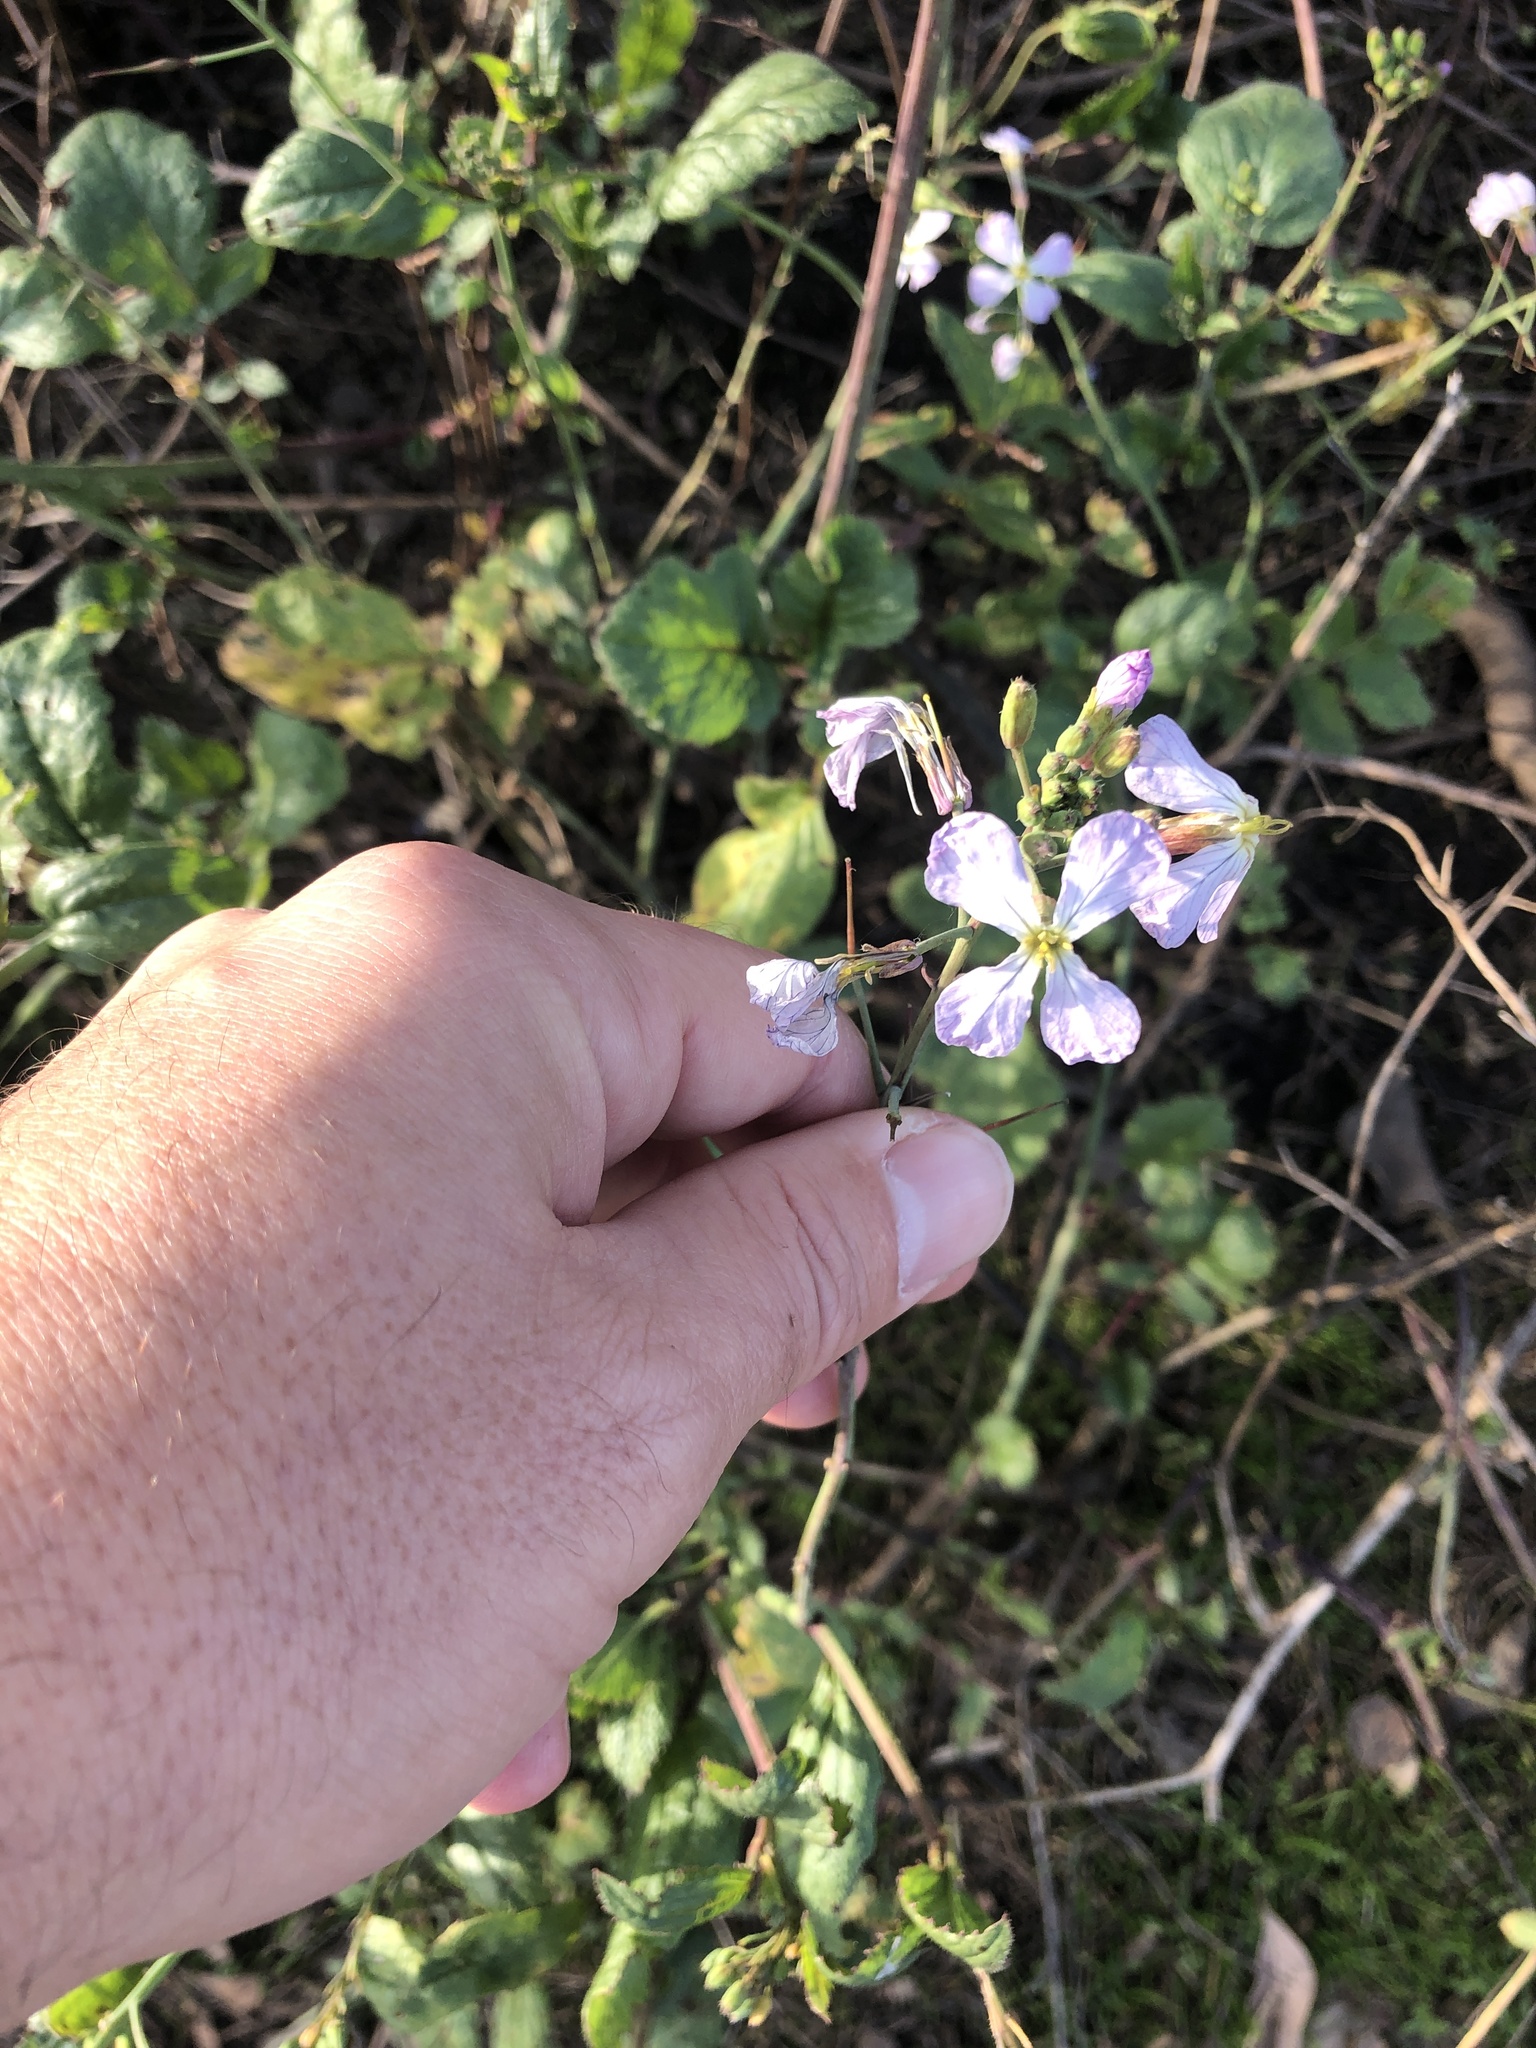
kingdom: Plantae
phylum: Tracheophyta
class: Magnoliopsida
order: Brassicales
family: Brassicaceae
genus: Raphanus
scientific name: Raphanus sativus
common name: Cultivated radish
